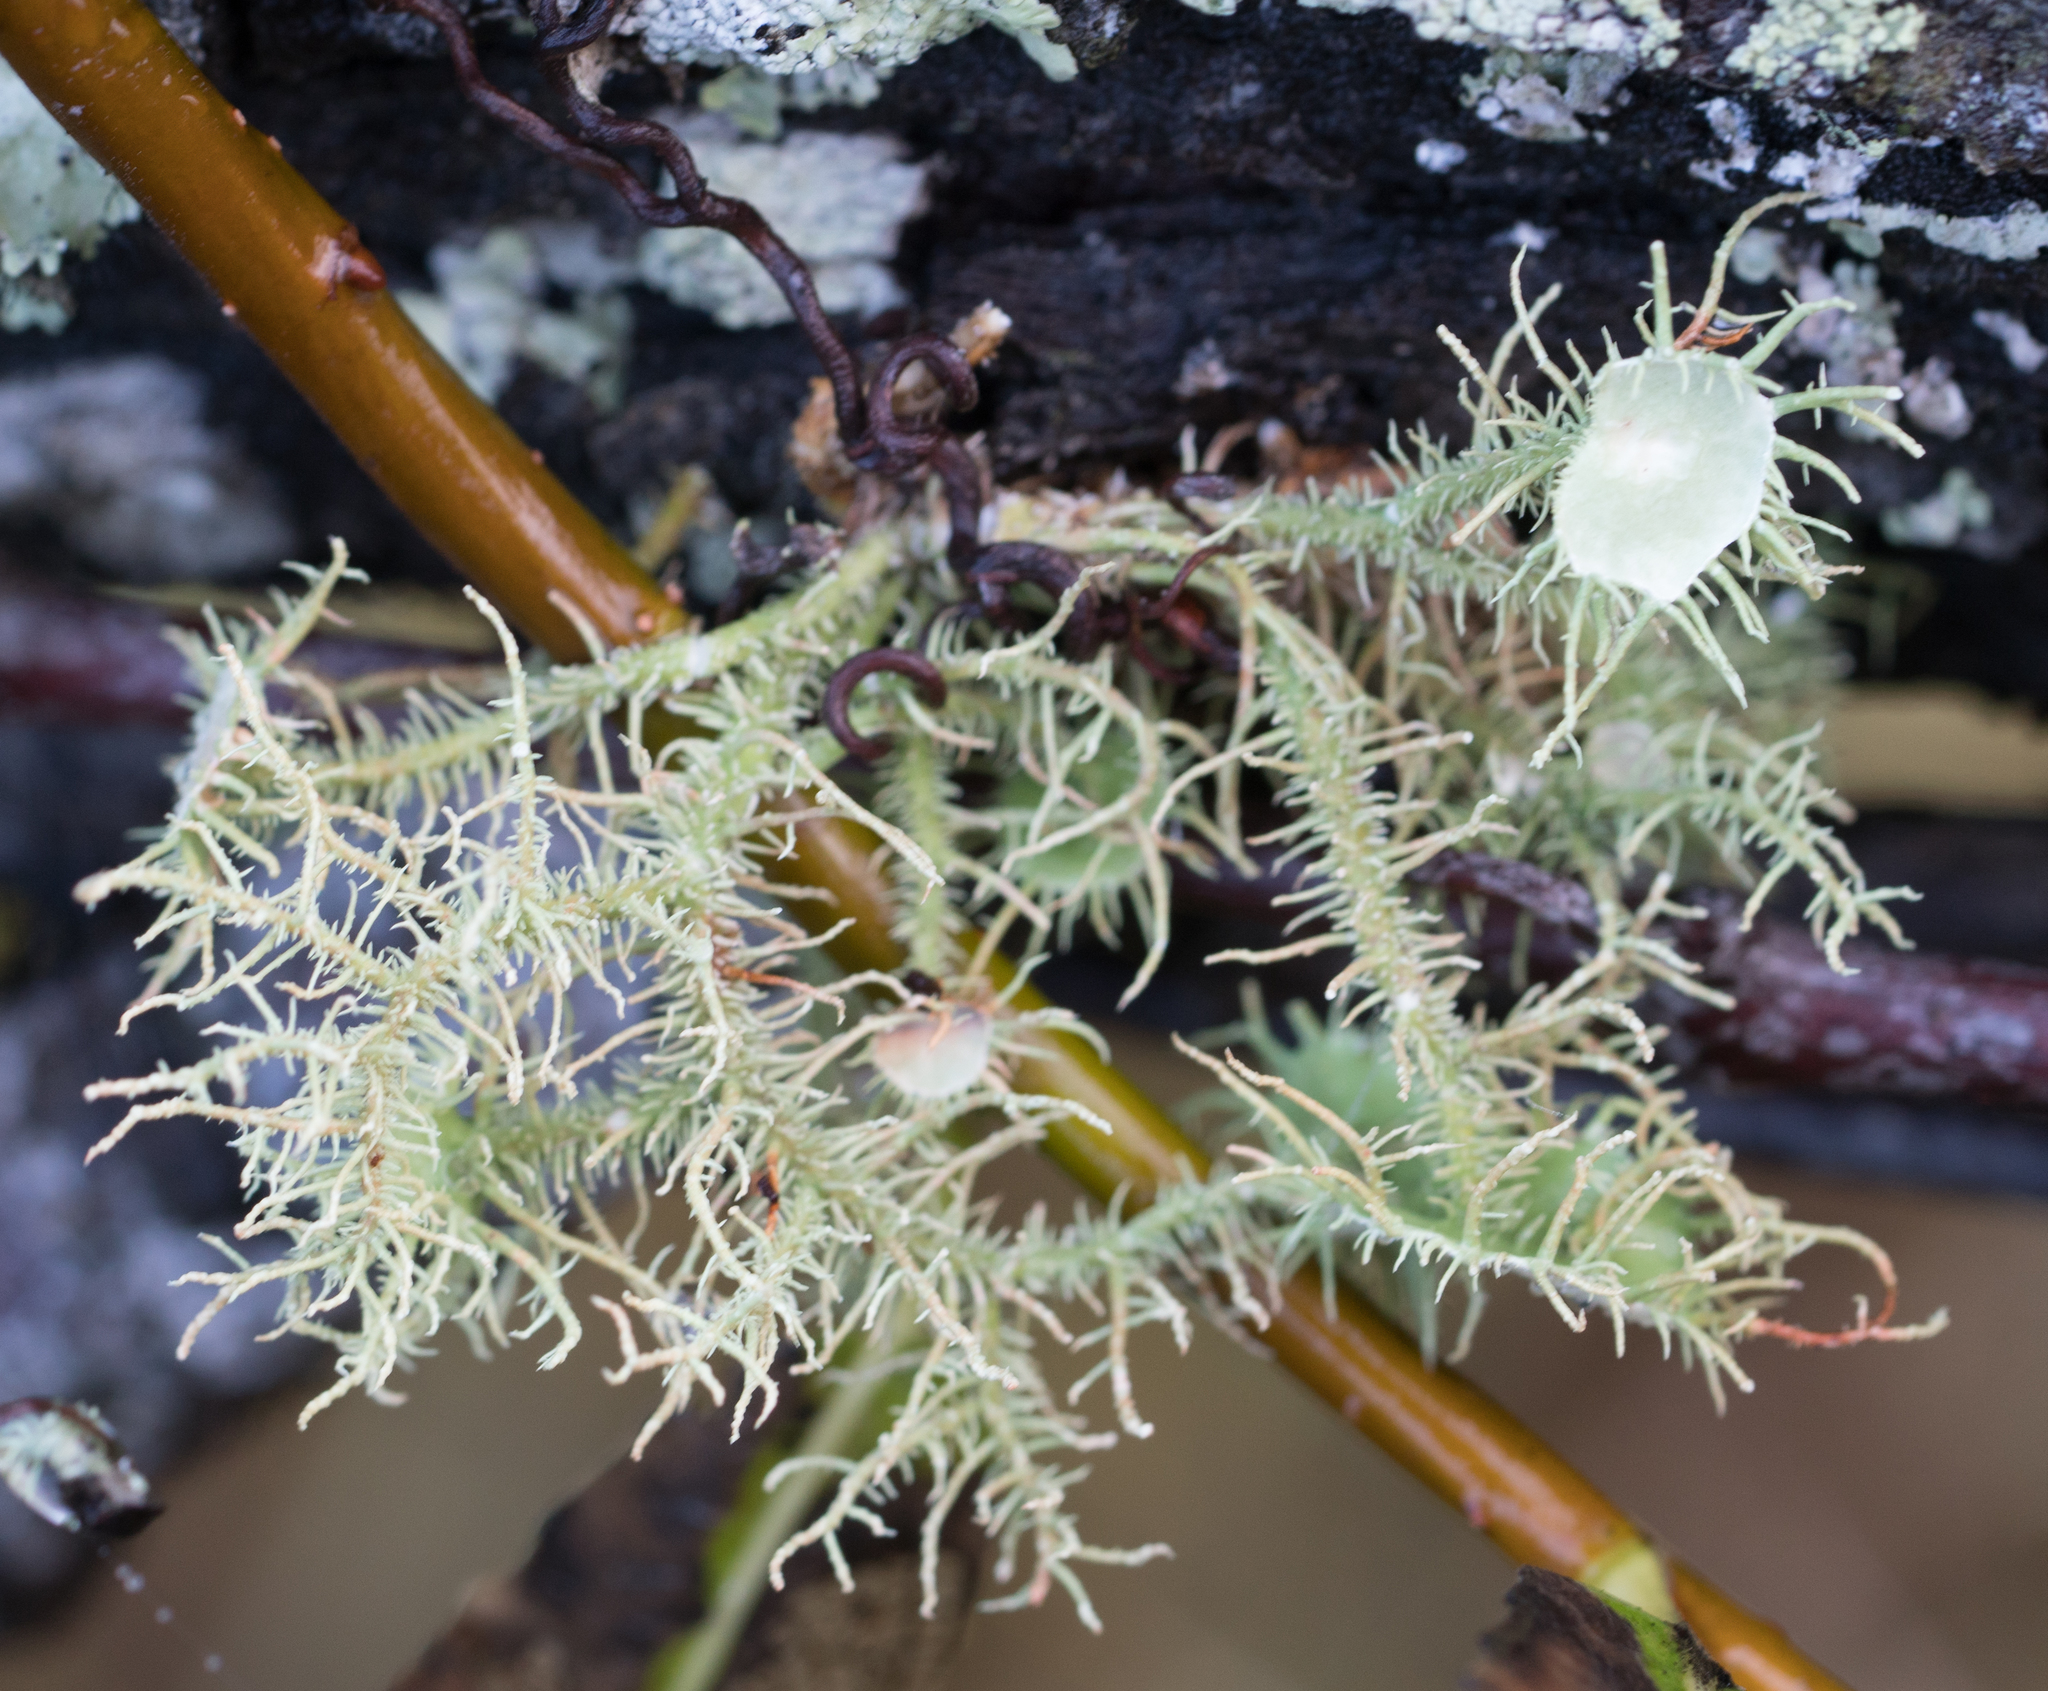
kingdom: Fungi
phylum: Ascomycota
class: Lecanoromycetes
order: Lecanorales
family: Parmeliaceae
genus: Usnea
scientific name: Usnea strigosa
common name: Bushy beard lichen
